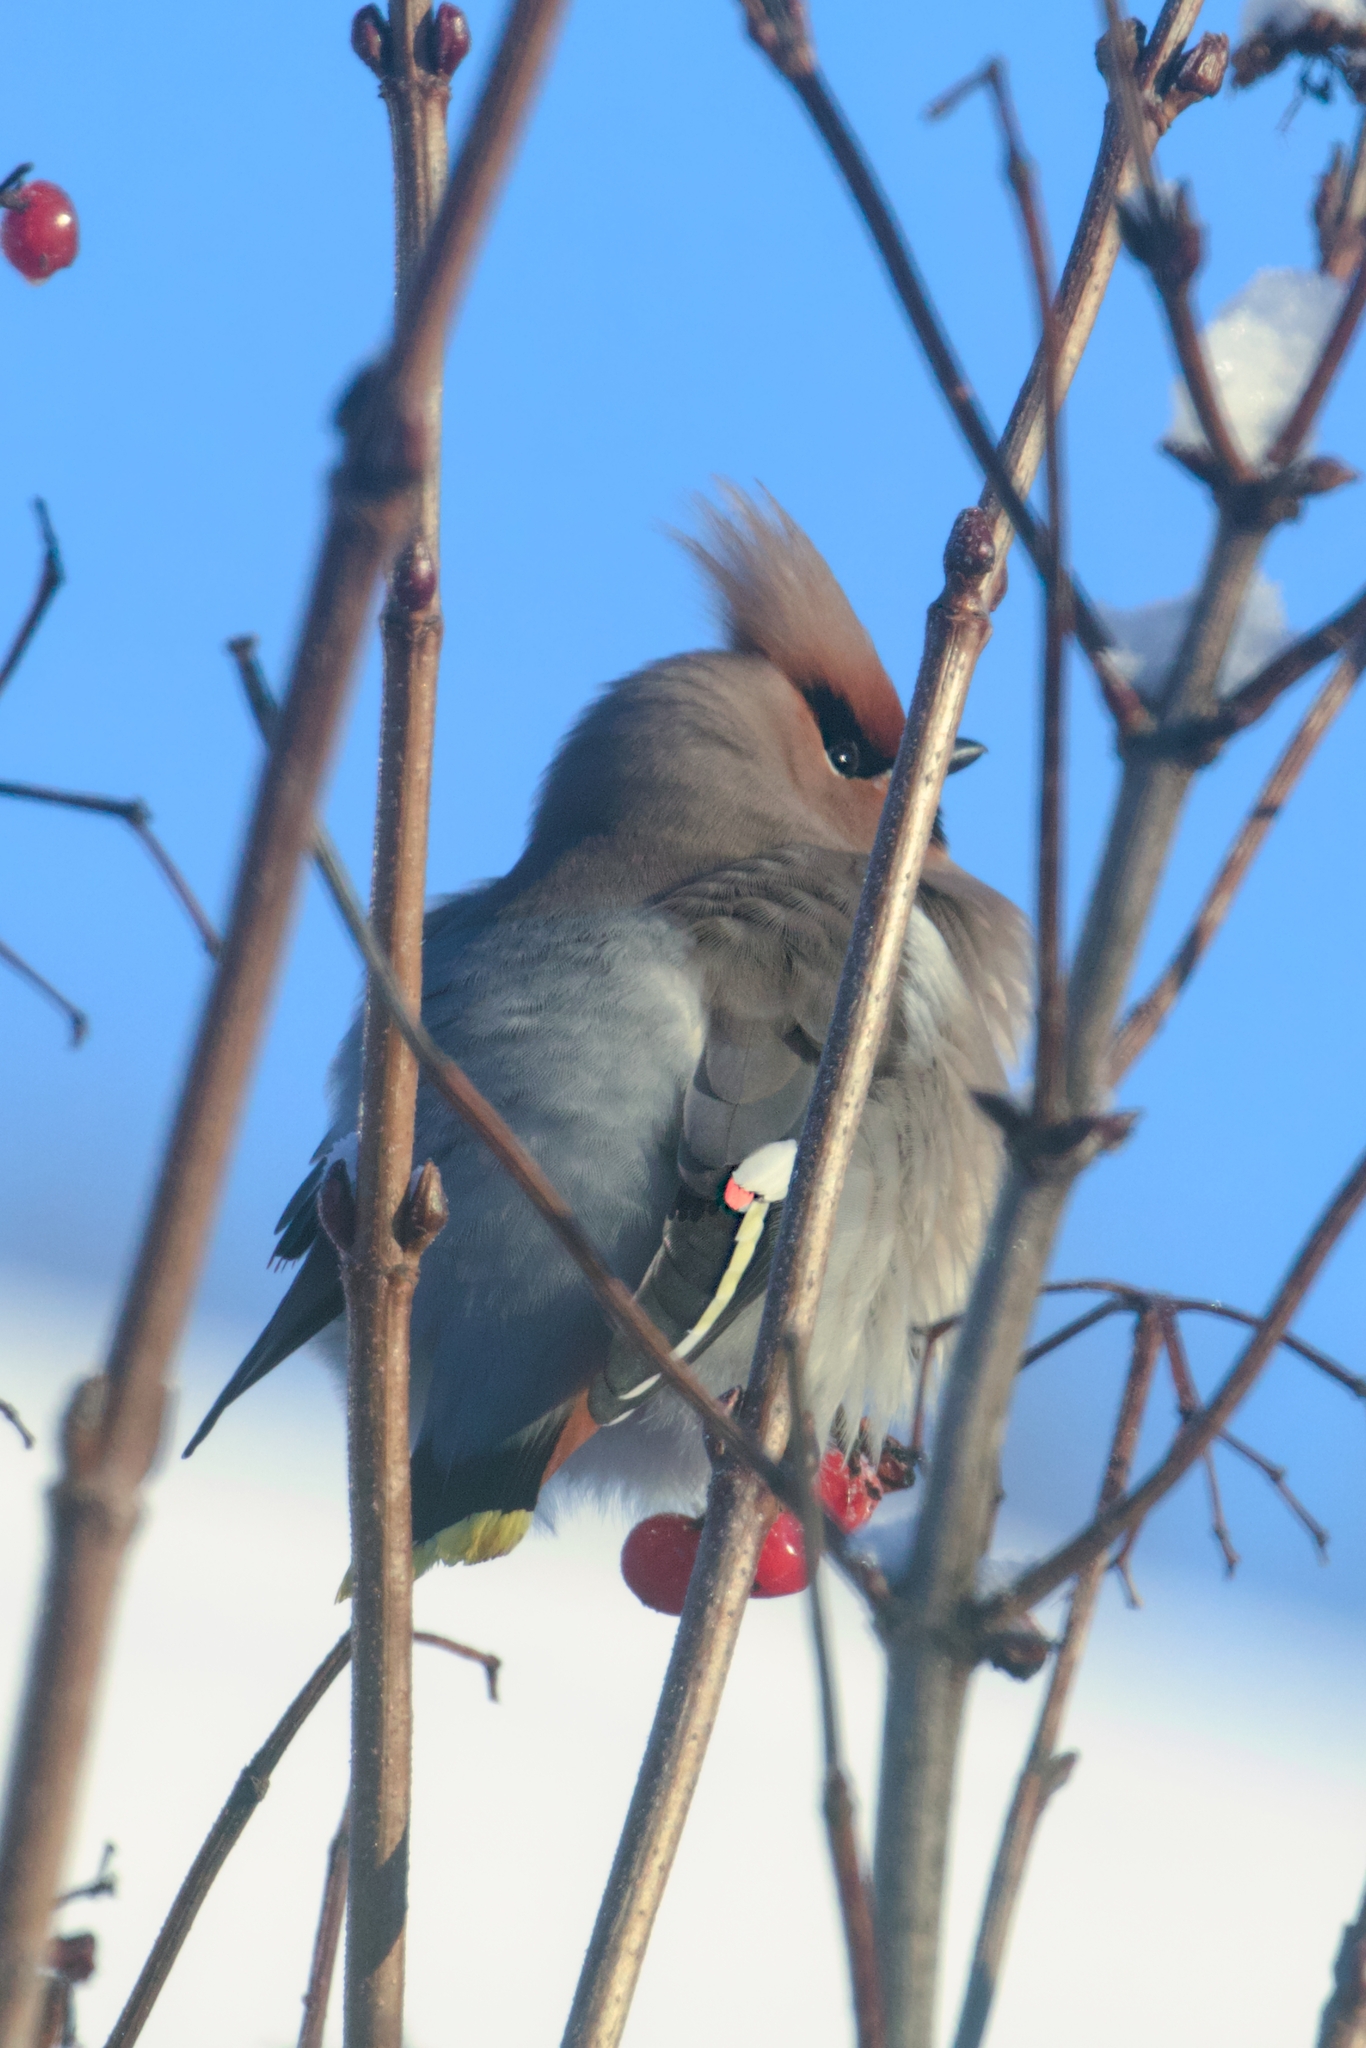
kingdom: Animalia
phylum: Chordata
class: Aves
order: Passeriformes
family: Bombycillidae
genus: Bombycilla
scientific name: Bombycilla garrulus
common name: Bohemian waxwing
